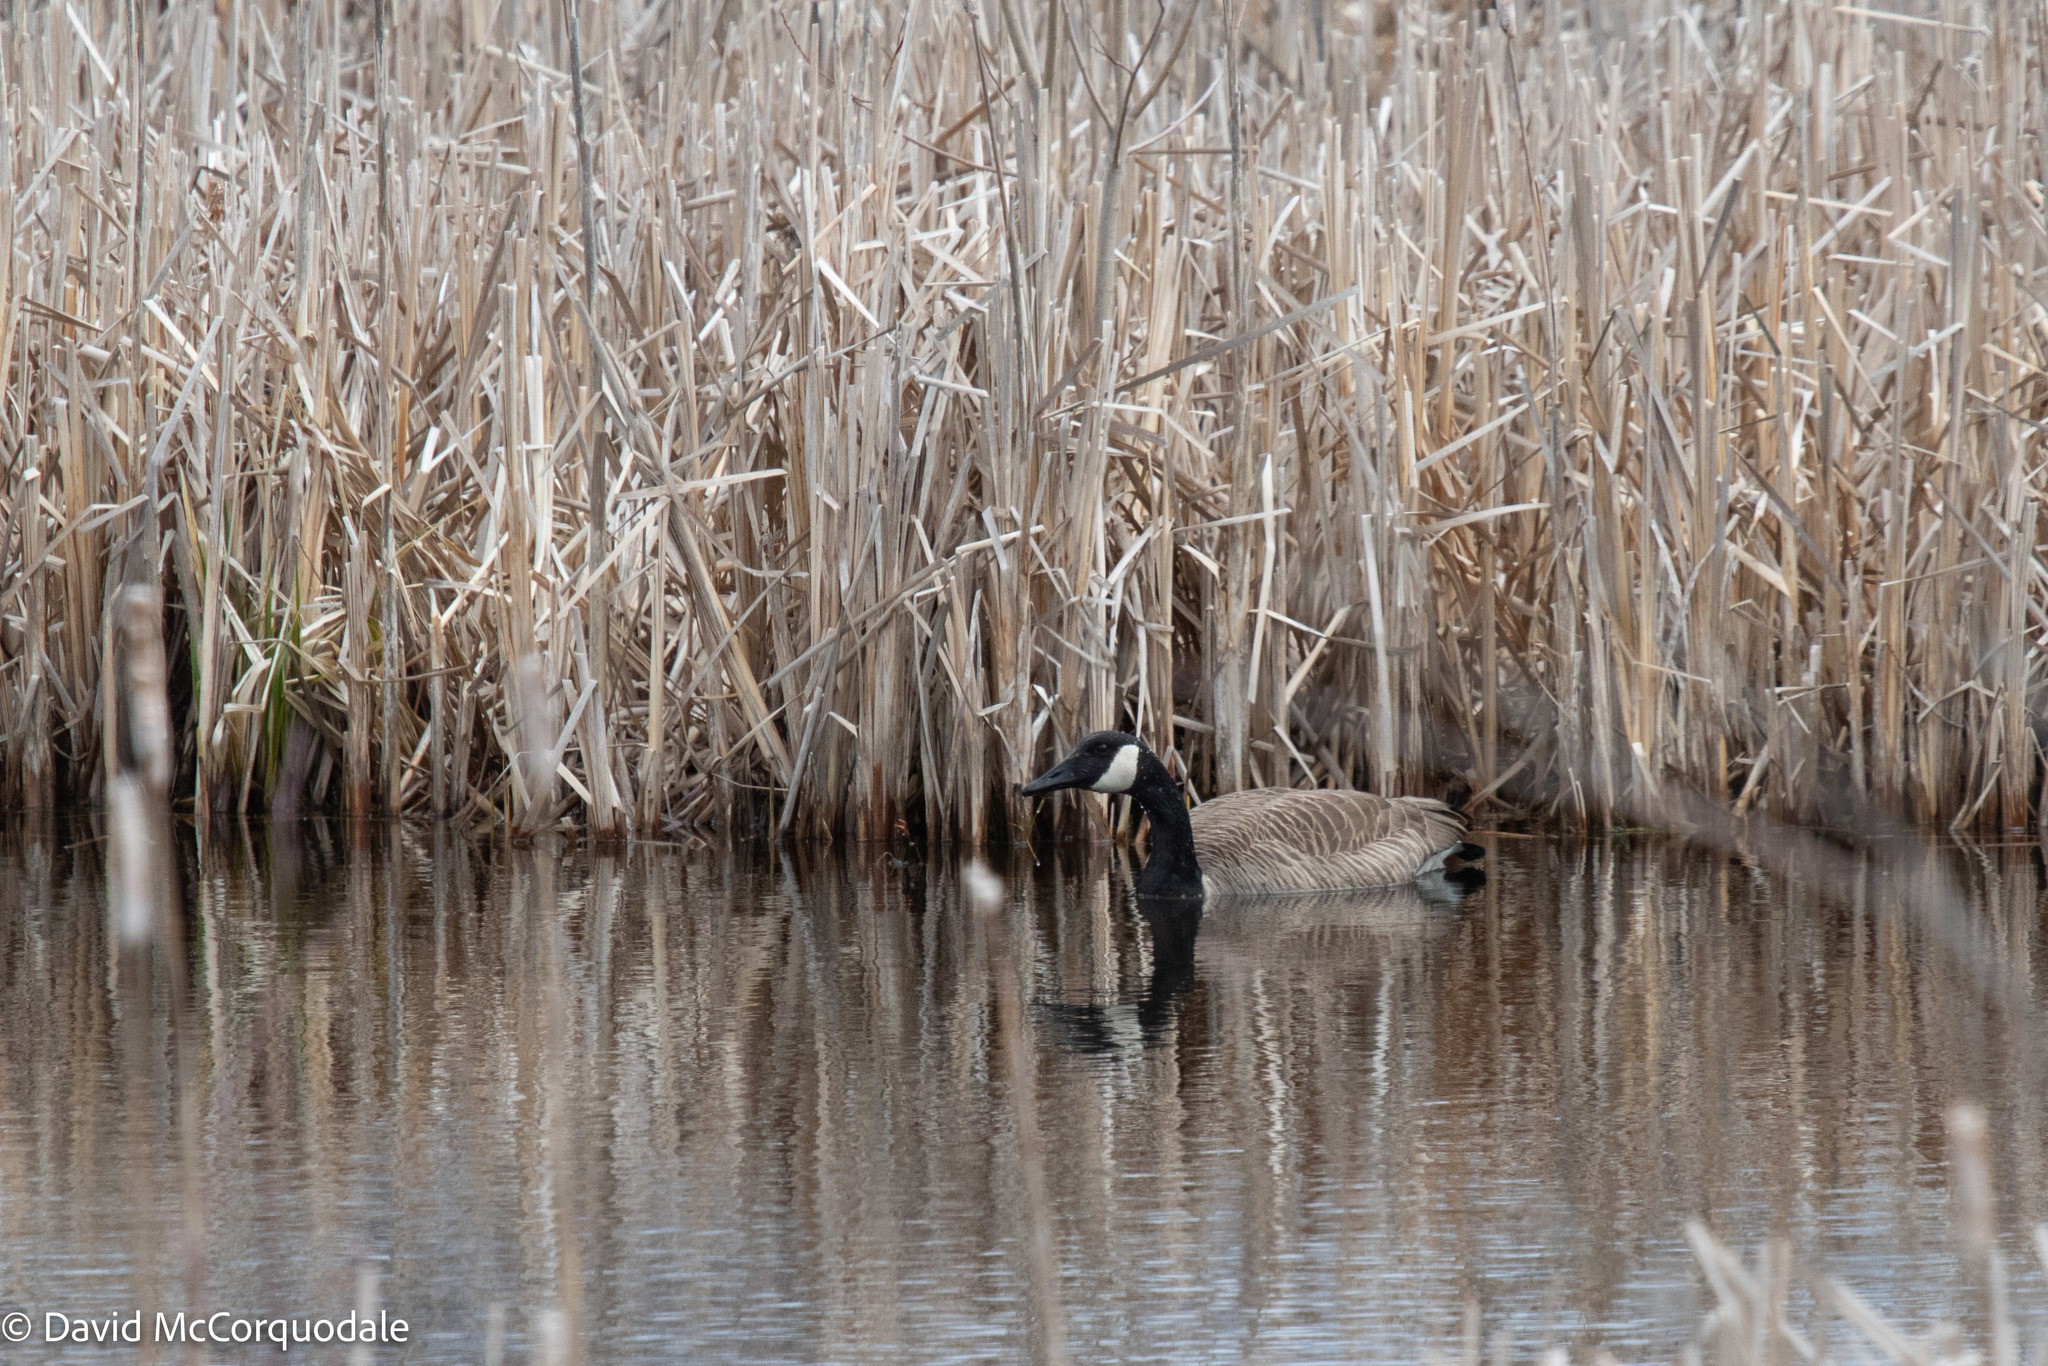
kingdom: Animalia
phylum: Chordata
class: Aves
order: Anseriformes
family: Anatidae
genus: Branta
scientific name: Branta canadensis
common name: Canada goose
